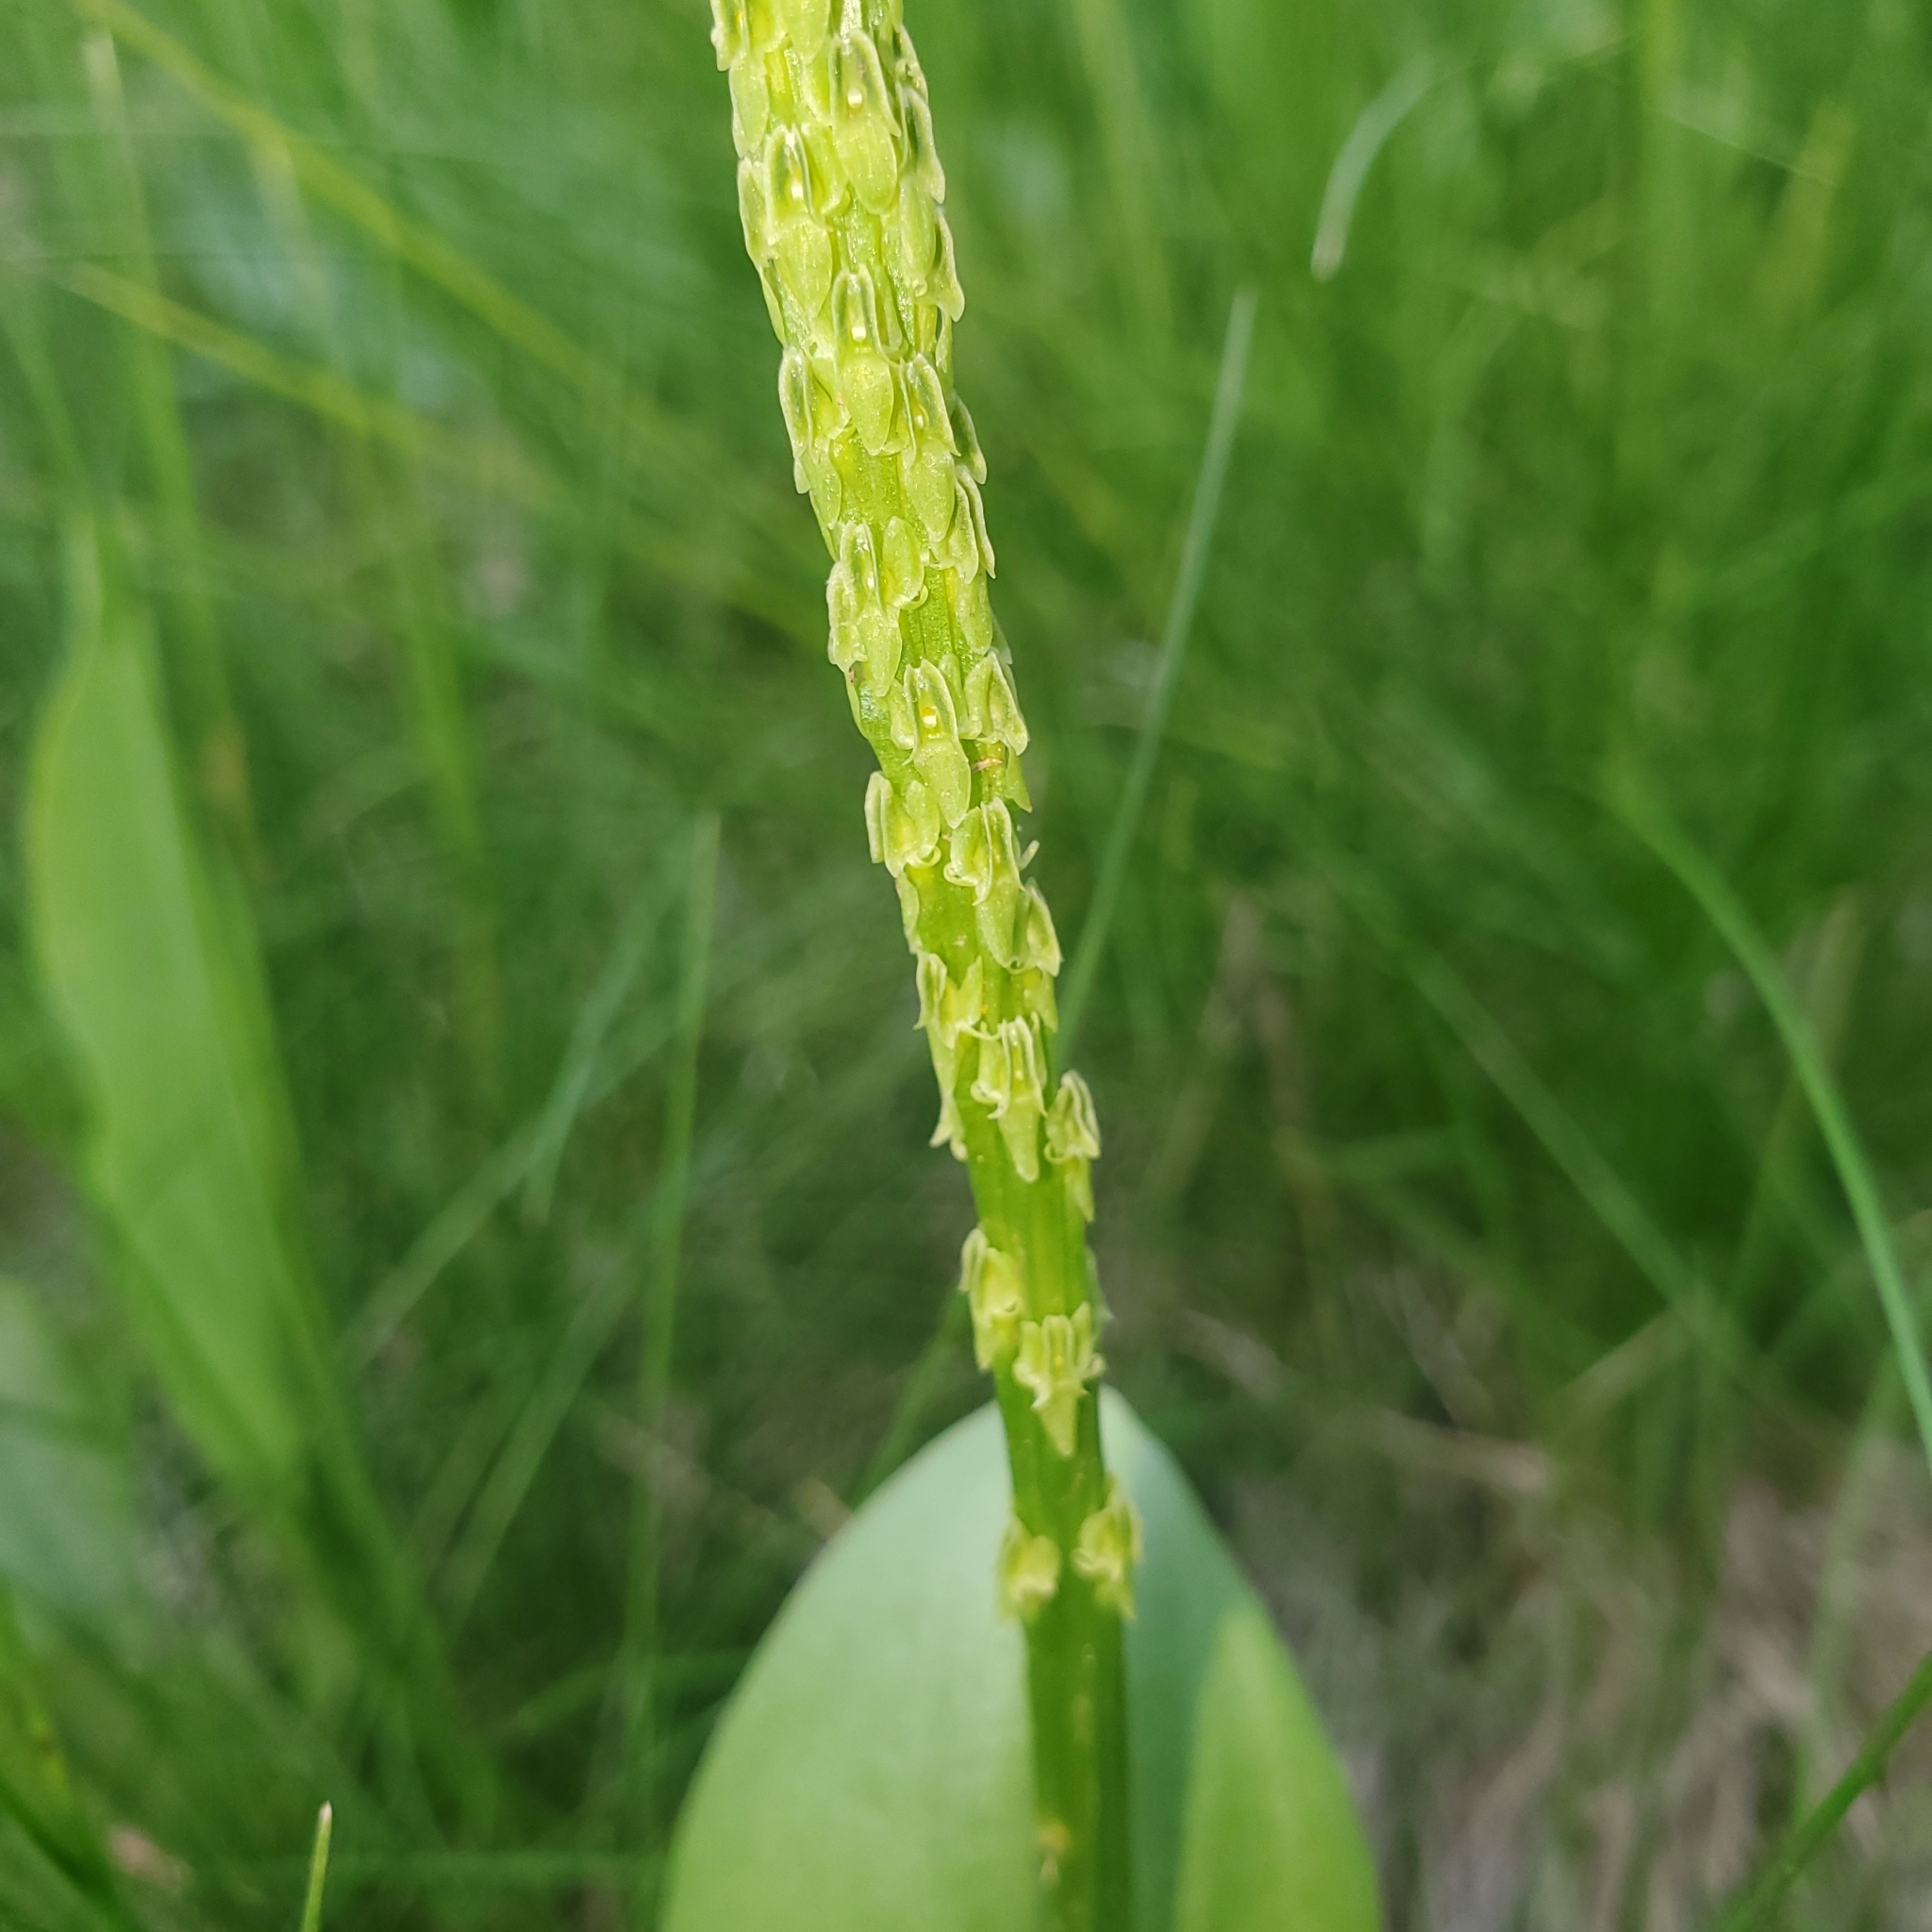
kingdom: Plantae
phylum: Tracheophyta
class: Liliopsida
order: Asparagales
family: Orchidaceae
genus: Malaxis
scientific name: Malaxis macrostachya
